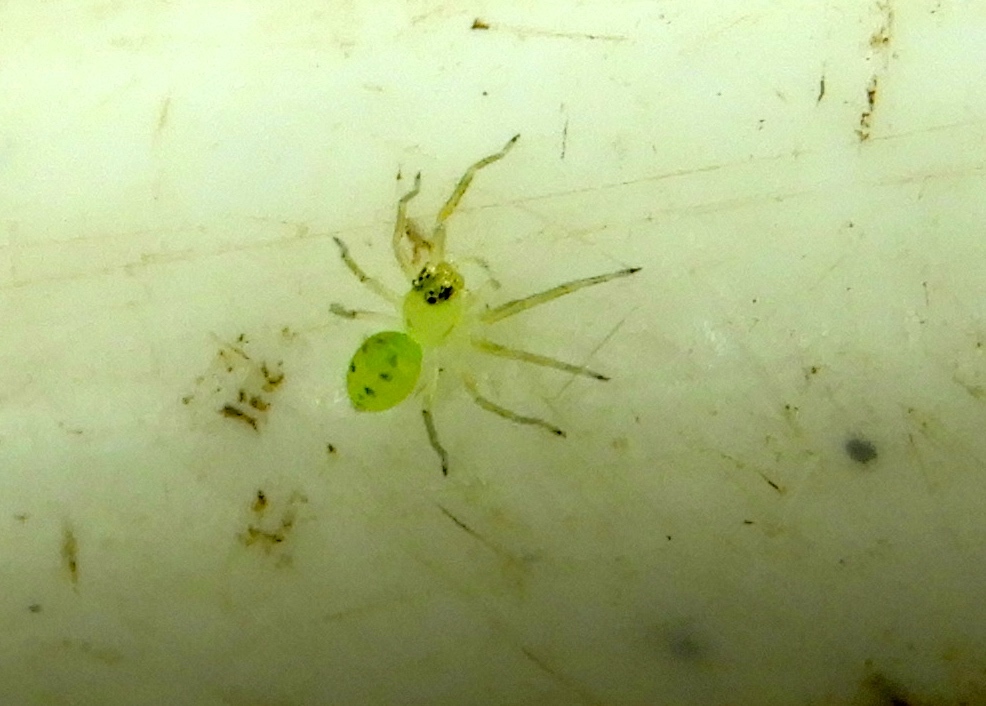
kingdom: Animalia
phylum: Arthropoda
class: Arachnida
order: Araneae
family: Salticidae
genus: Lyssomanes
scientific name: Lyssomanes
